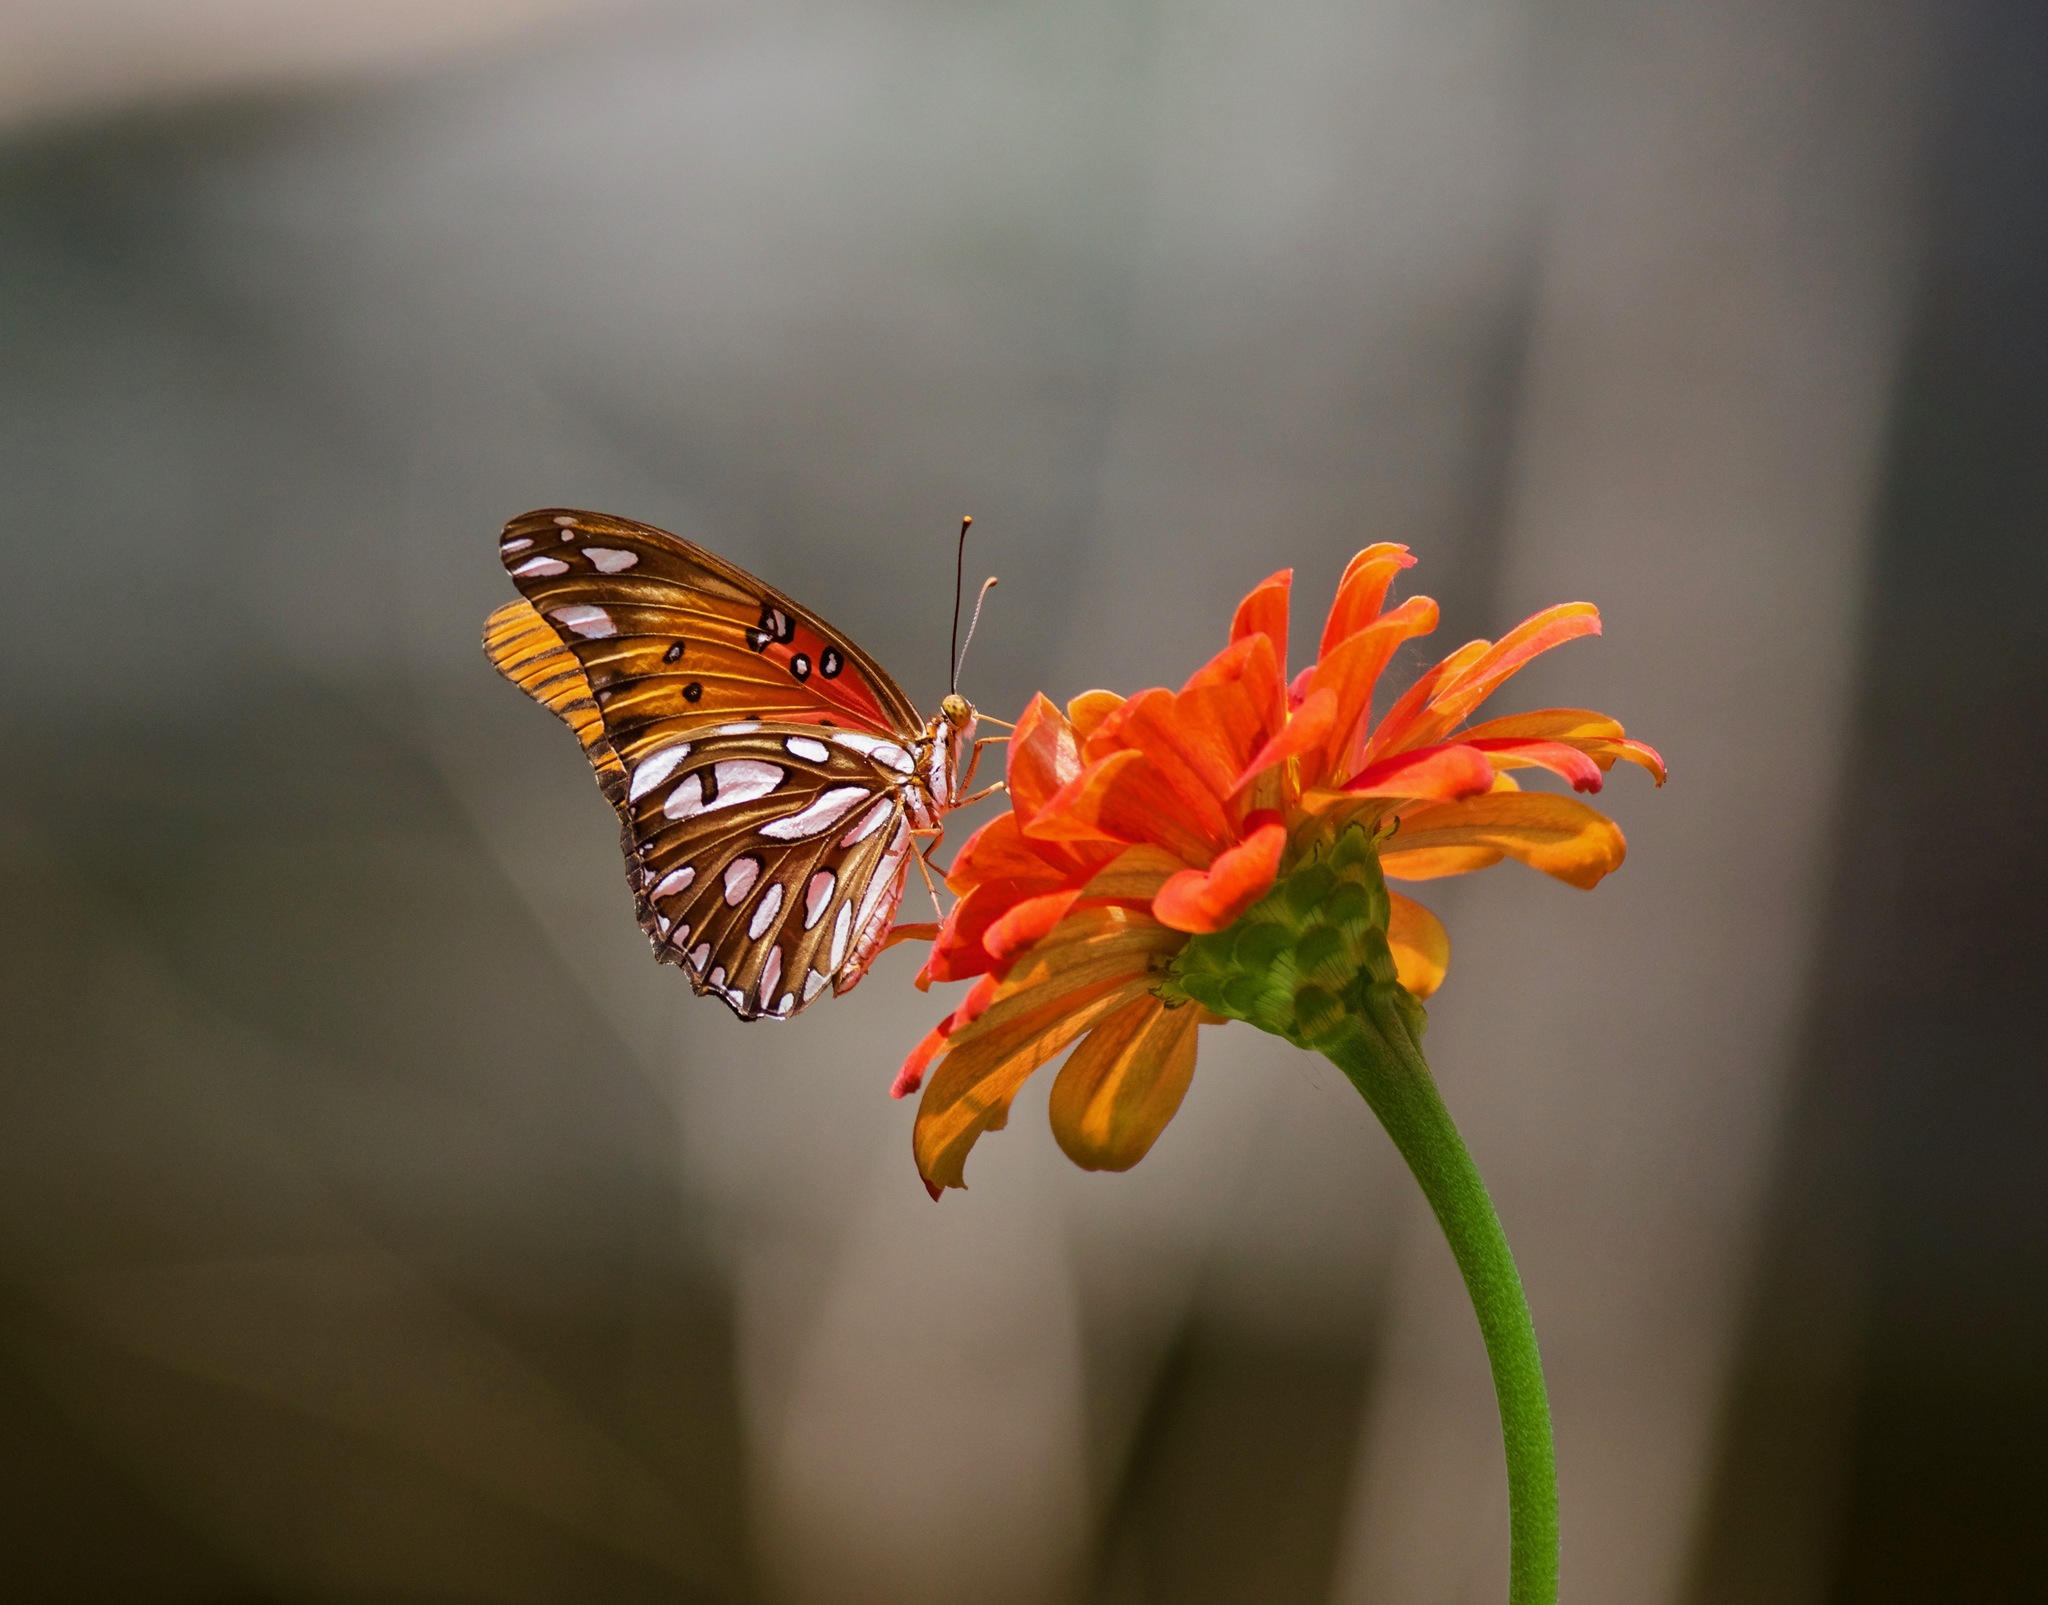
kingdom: Animalia
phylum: Arthropoda
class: Insecta
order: Lepidoptera
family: Nymphalidae
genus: Dione
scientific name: Dione vanillae
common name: Gulf fritillary
